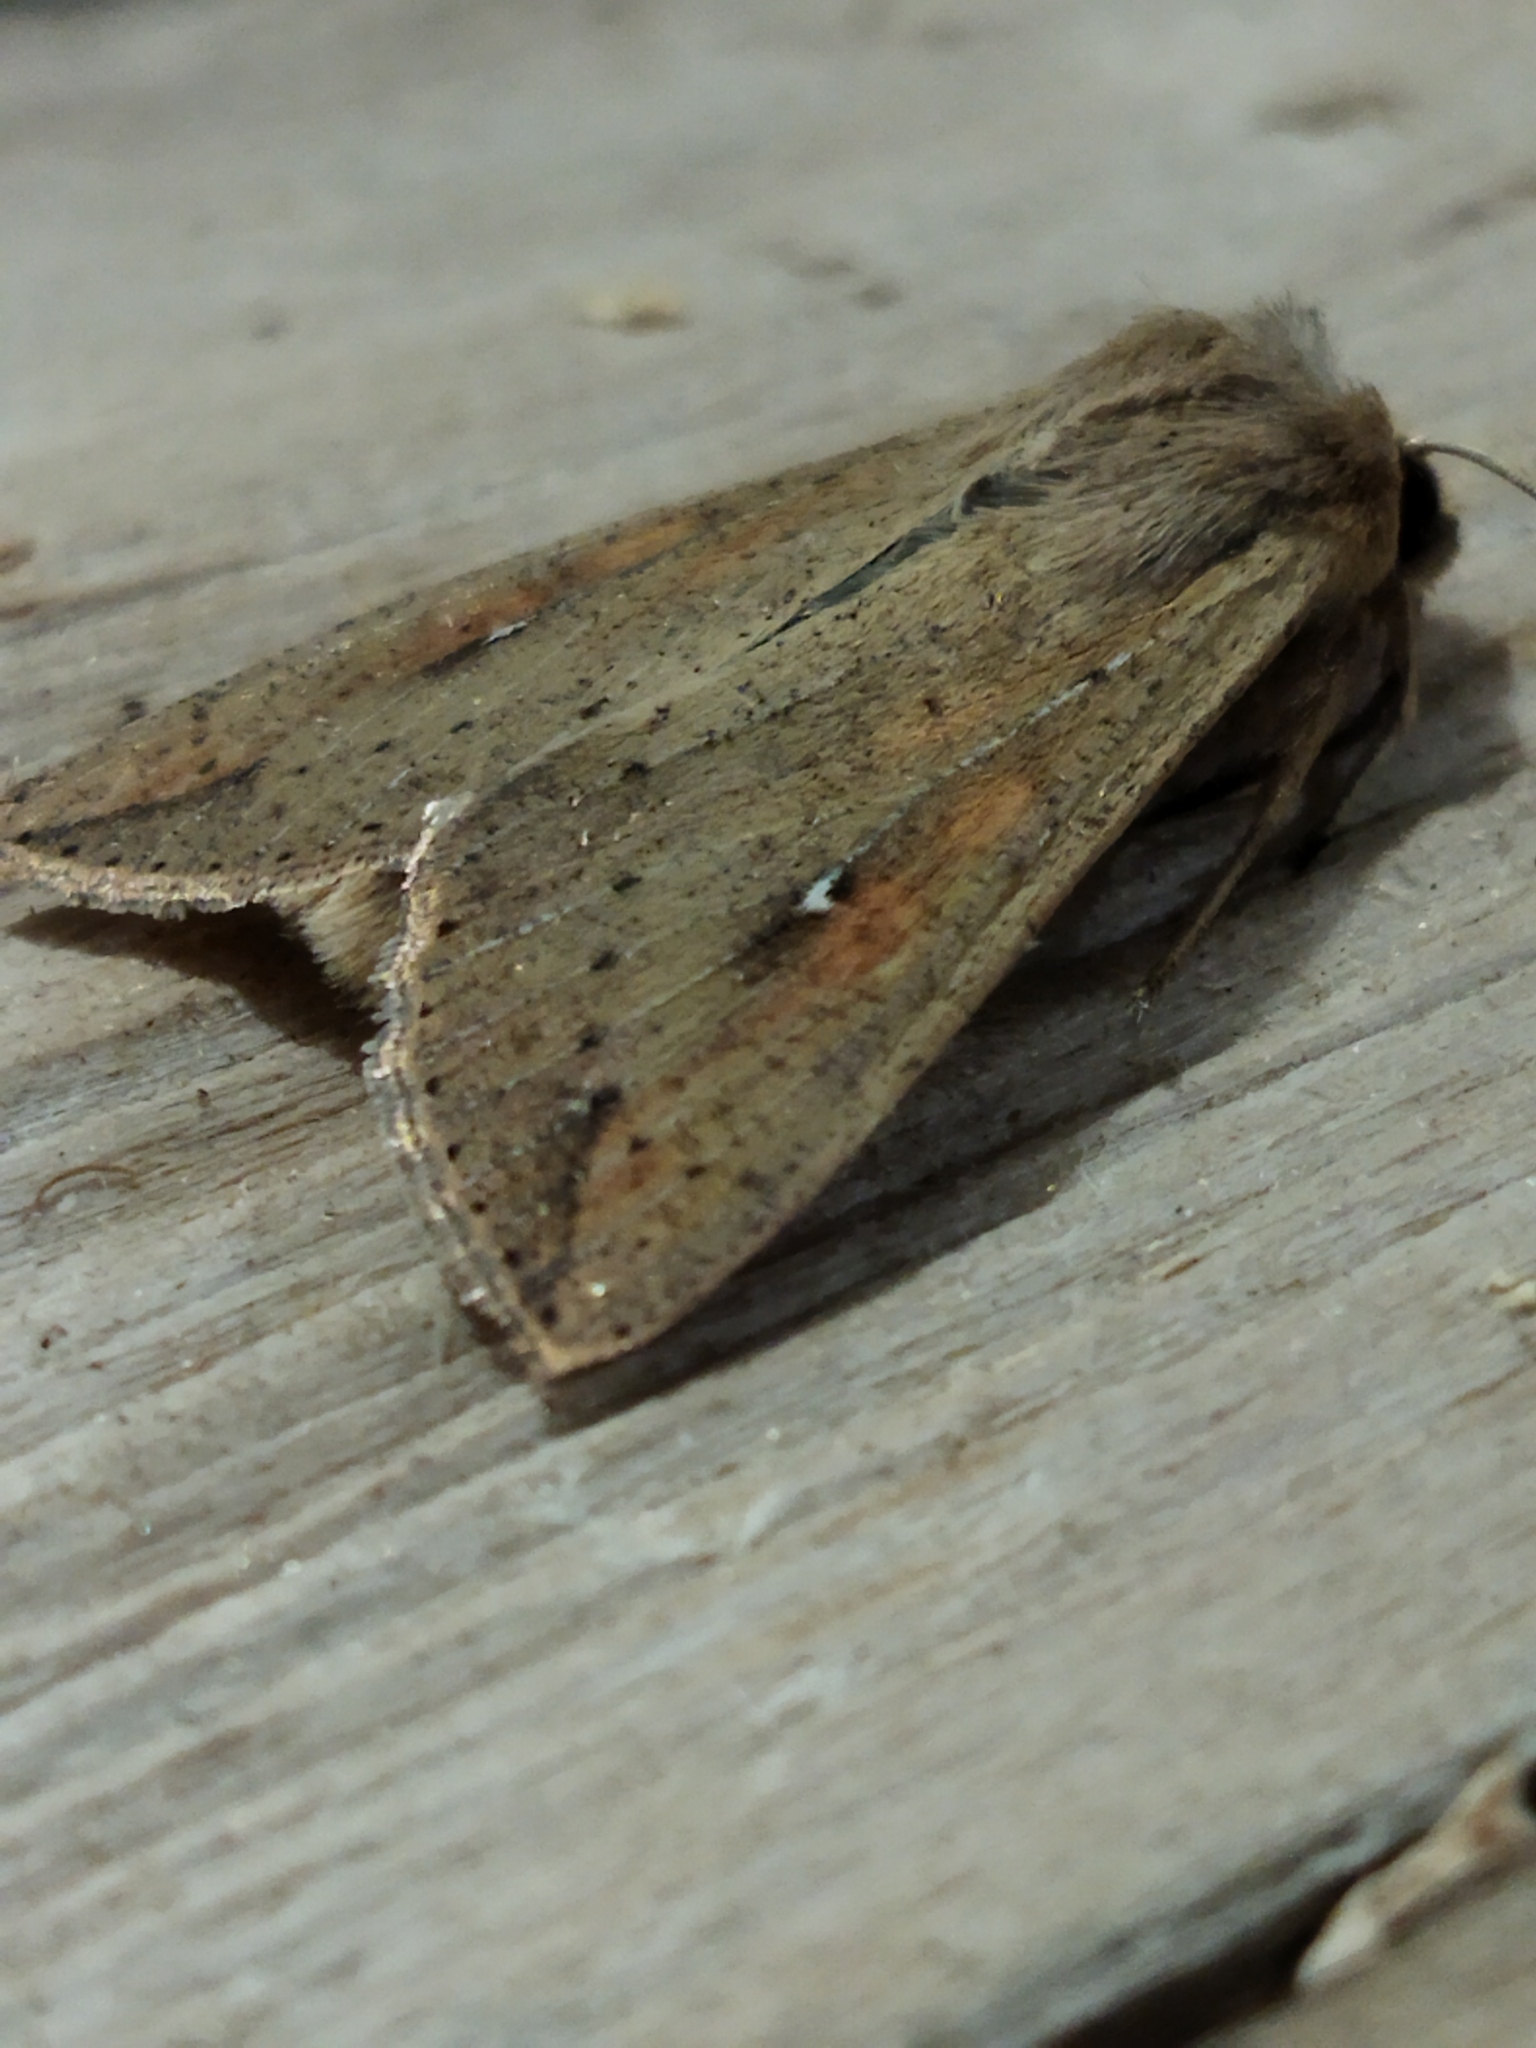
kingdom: Animalia
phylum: Arthropoda
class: Insecta
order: Lepidoptera
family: Noctuidae
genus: Mythimna
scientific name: Mythimna unipuncta
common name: White-speck
